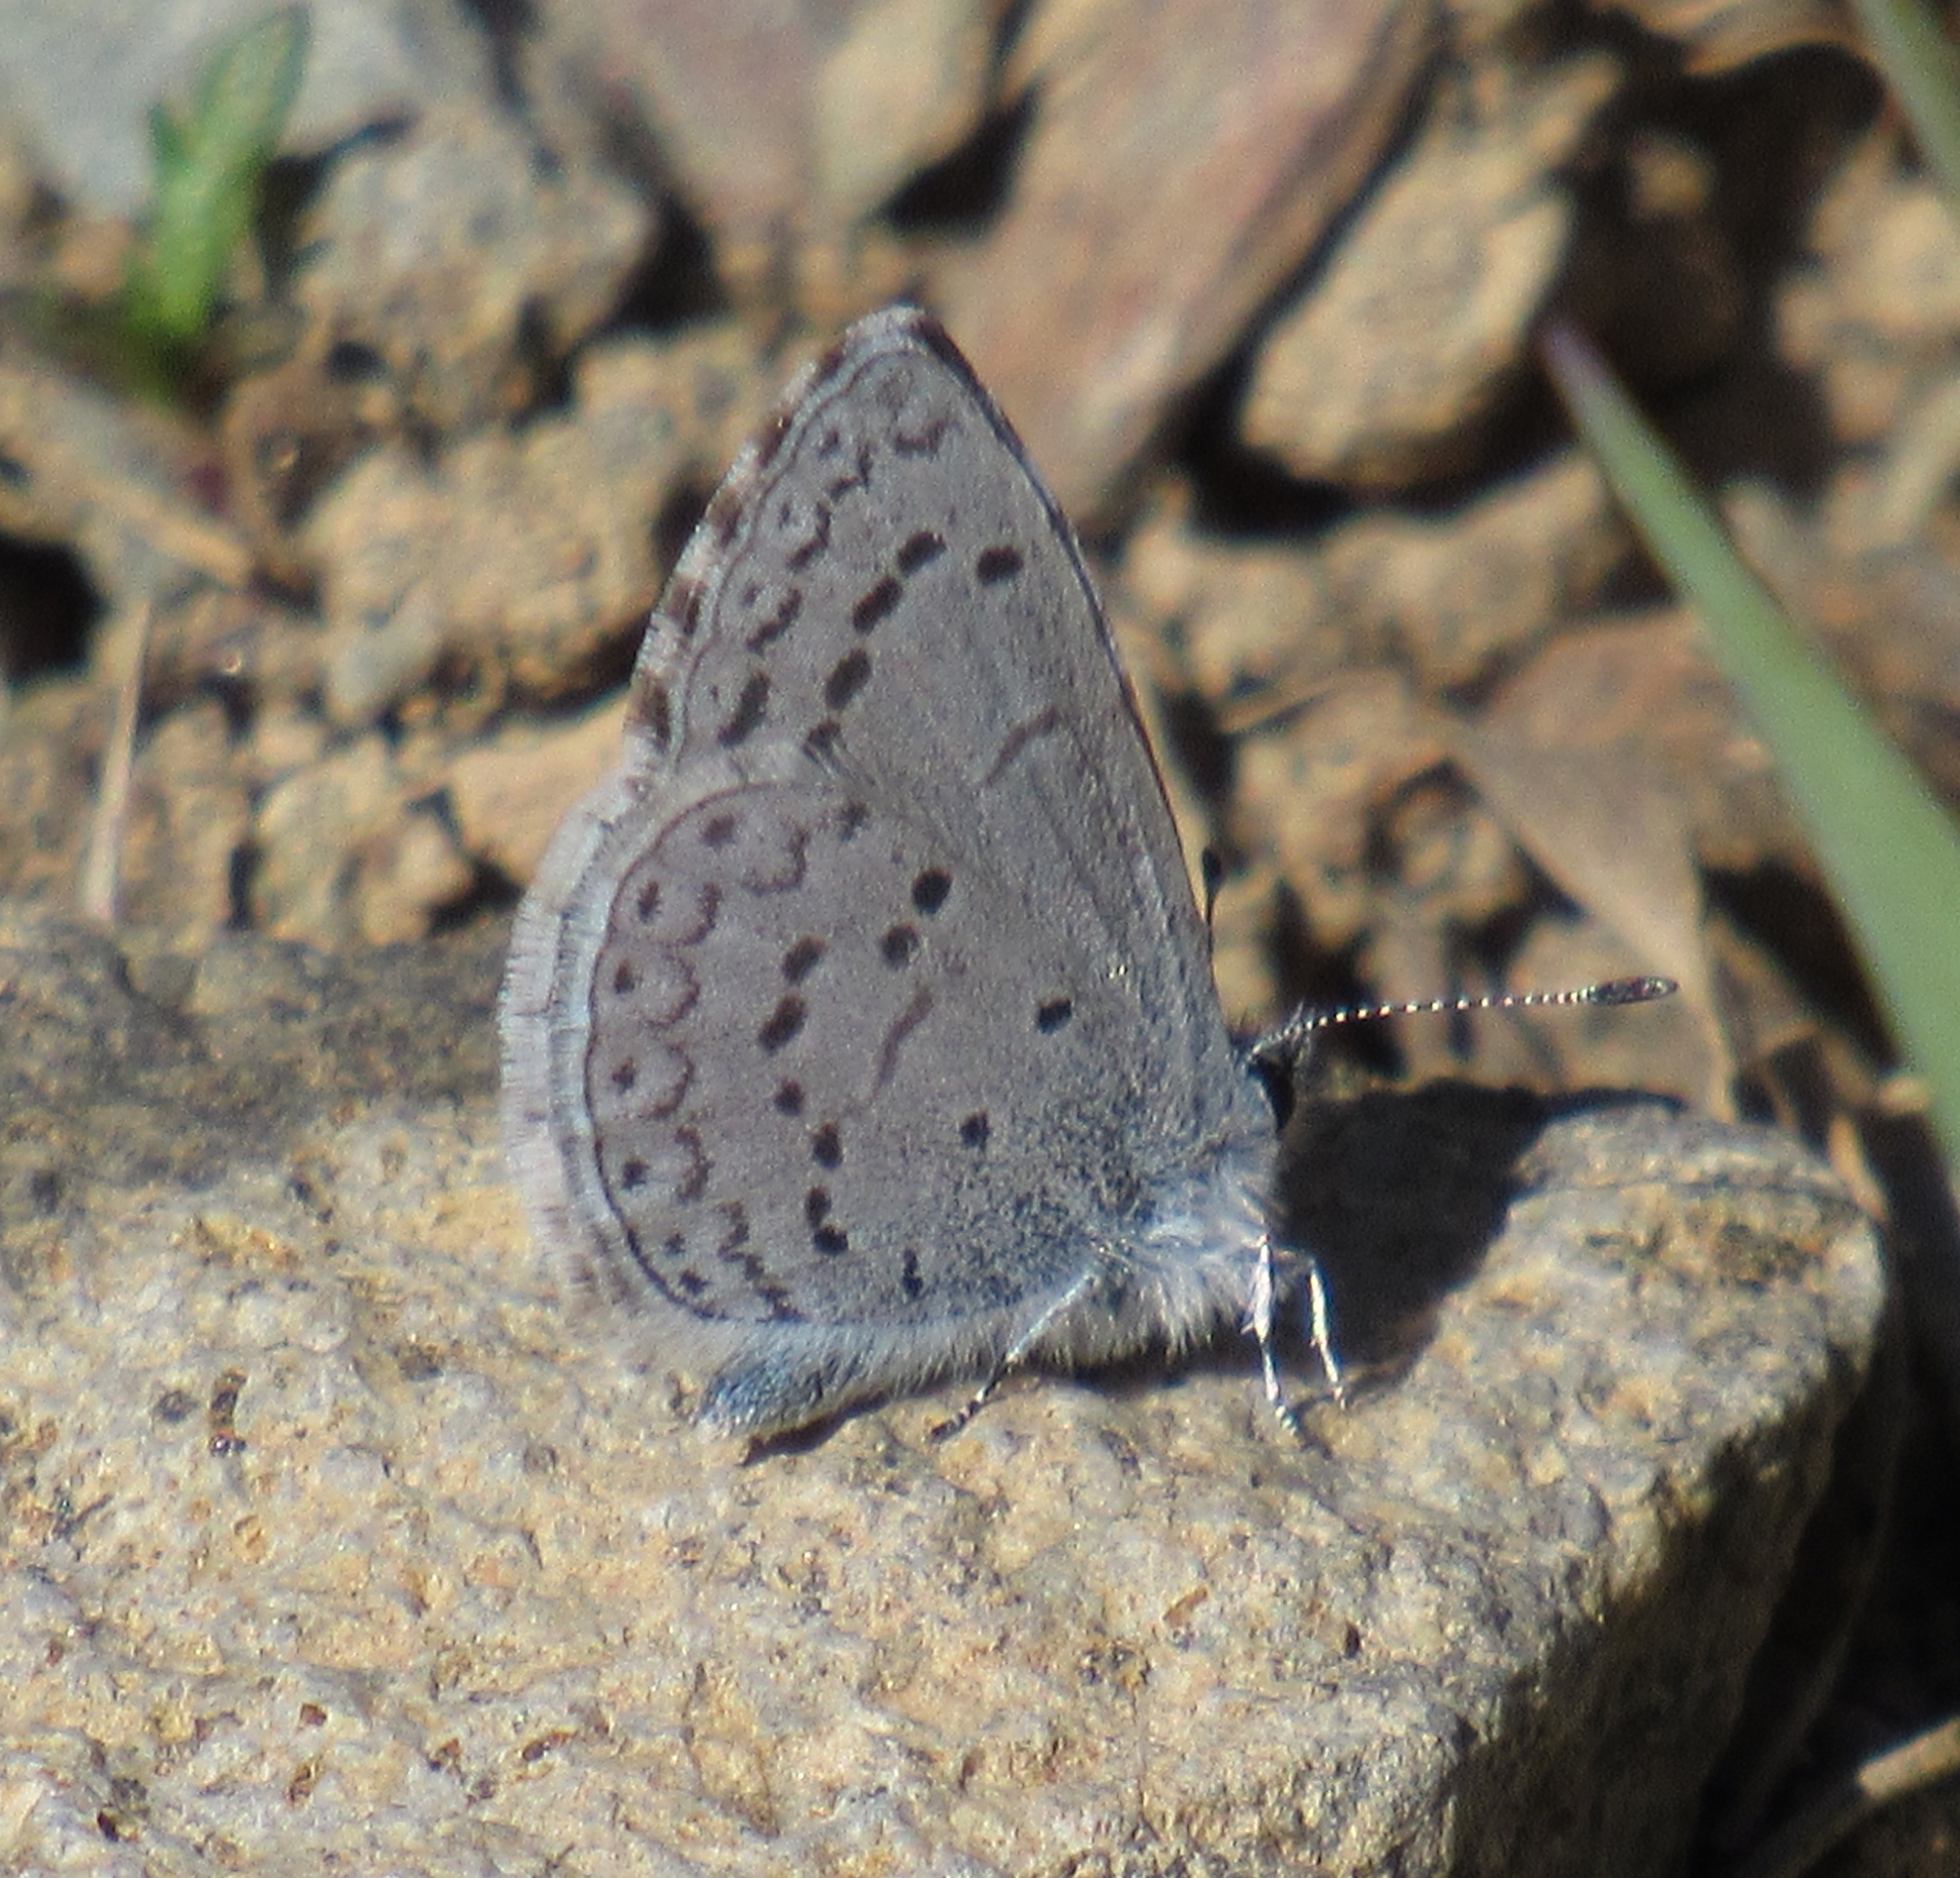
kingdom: Animalia
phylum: Arthropoda
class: Insecta
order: Lepidoptera
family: Lycaenidae
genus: Celastrina
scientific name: Celastrina ladon
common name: Spring azure
